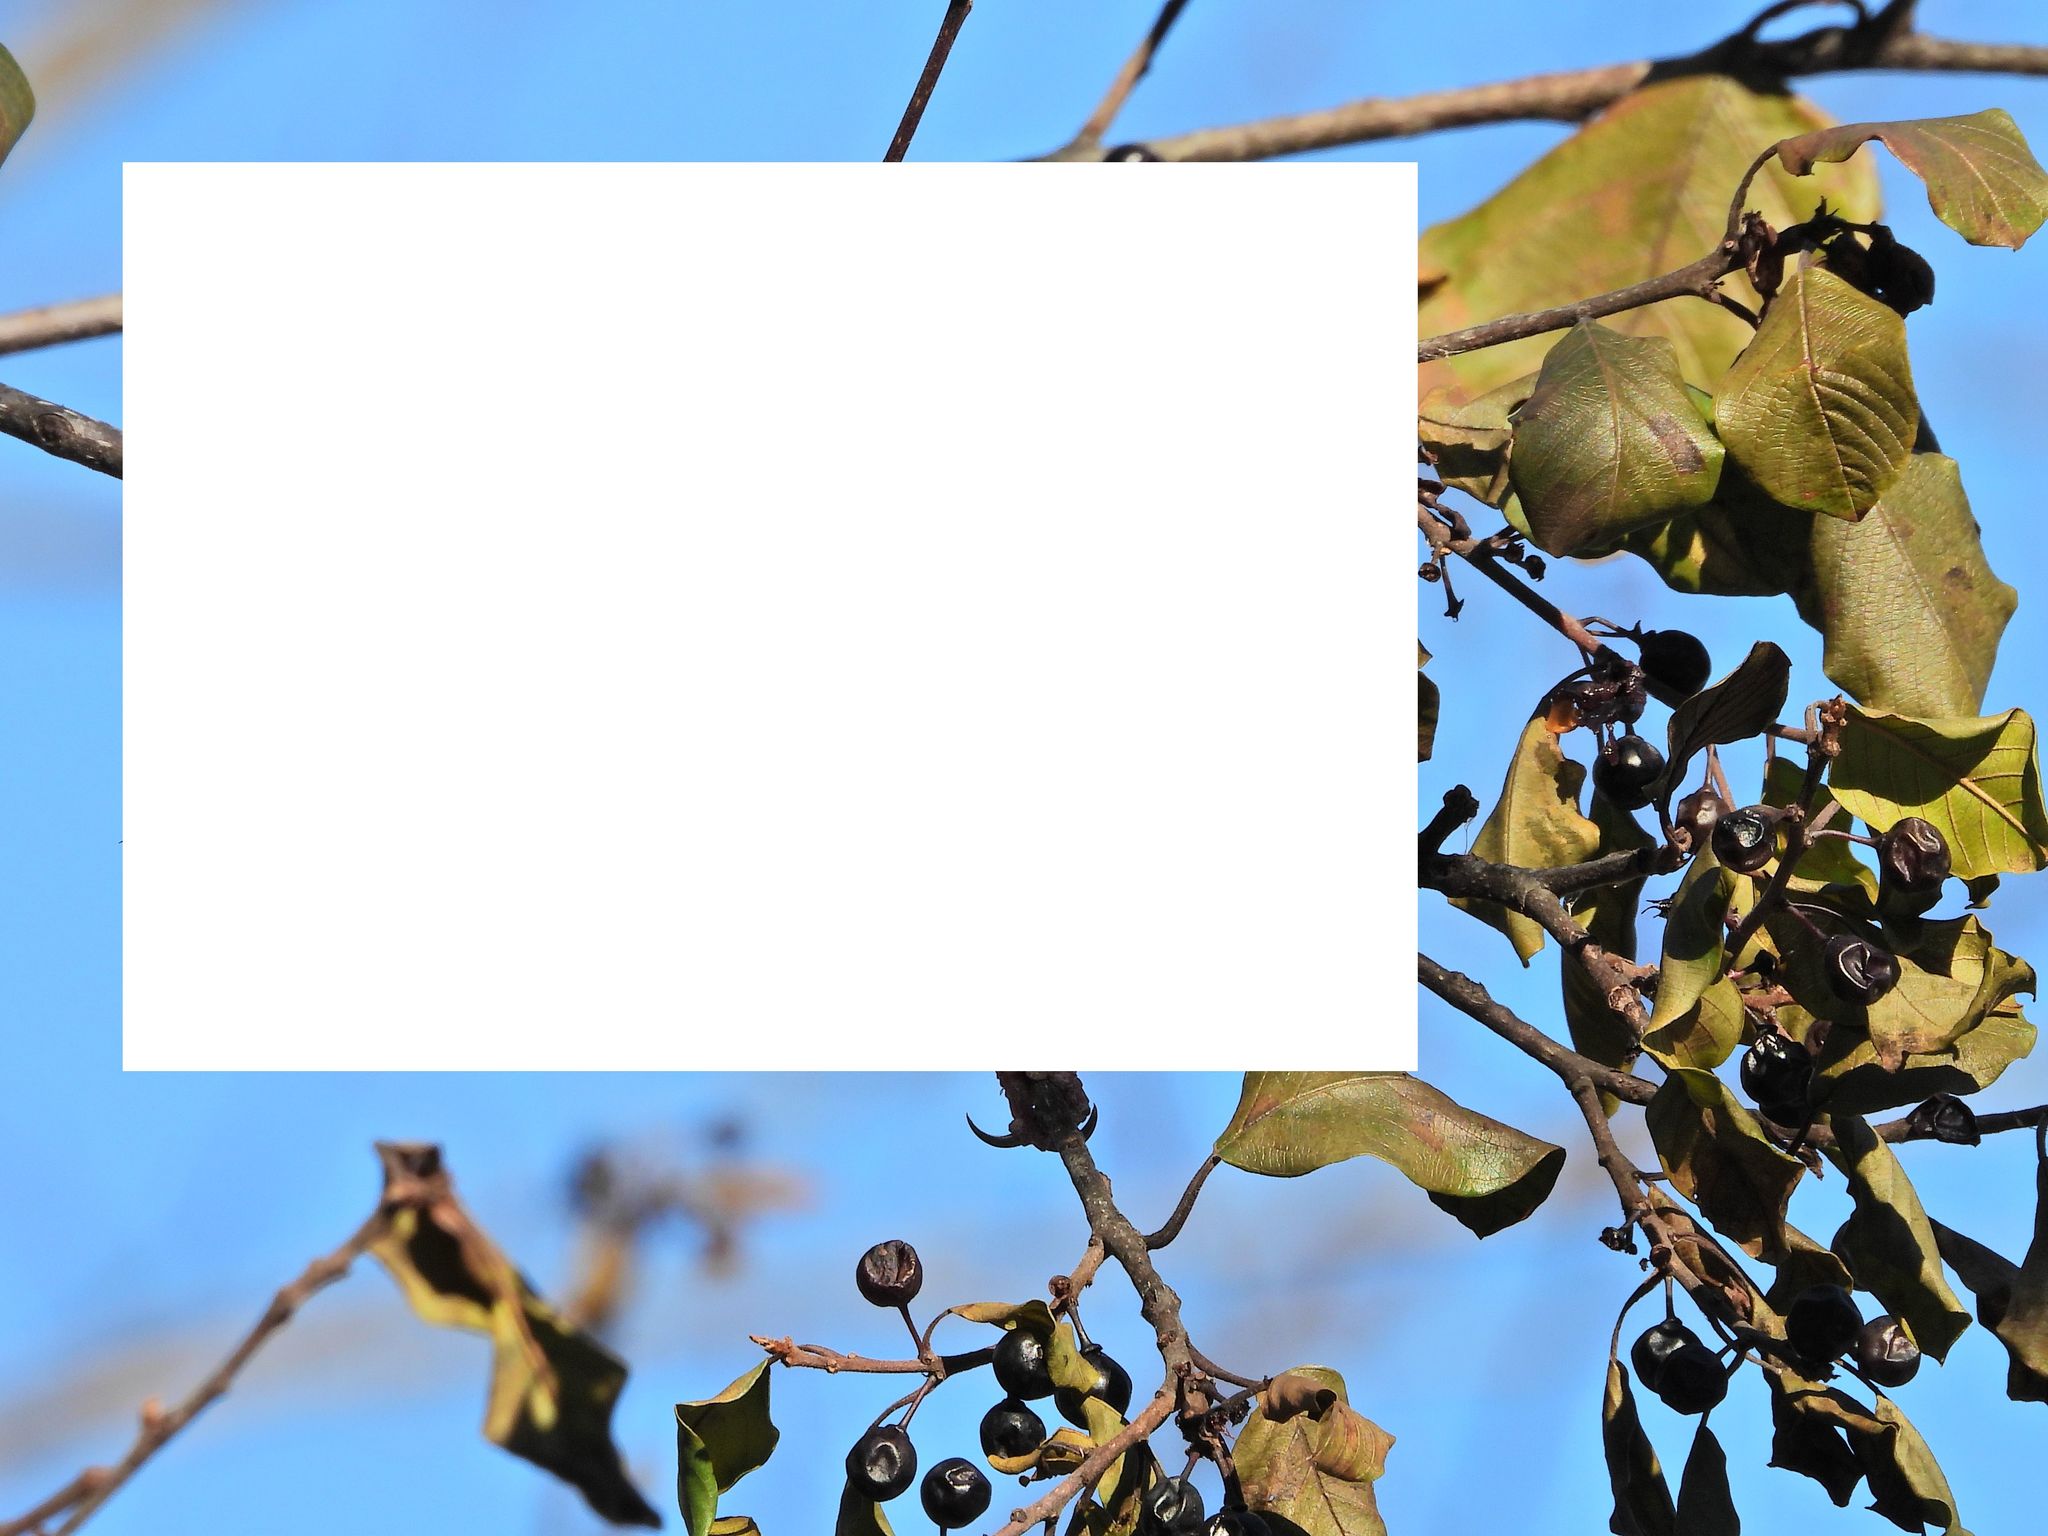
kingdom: Plantae
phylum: Tracheophyta
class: Magnoliopsida
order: Rosales
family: Rhamnaceae
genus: Frangula
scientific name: Frangula alnus
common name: Alder buckthorn
